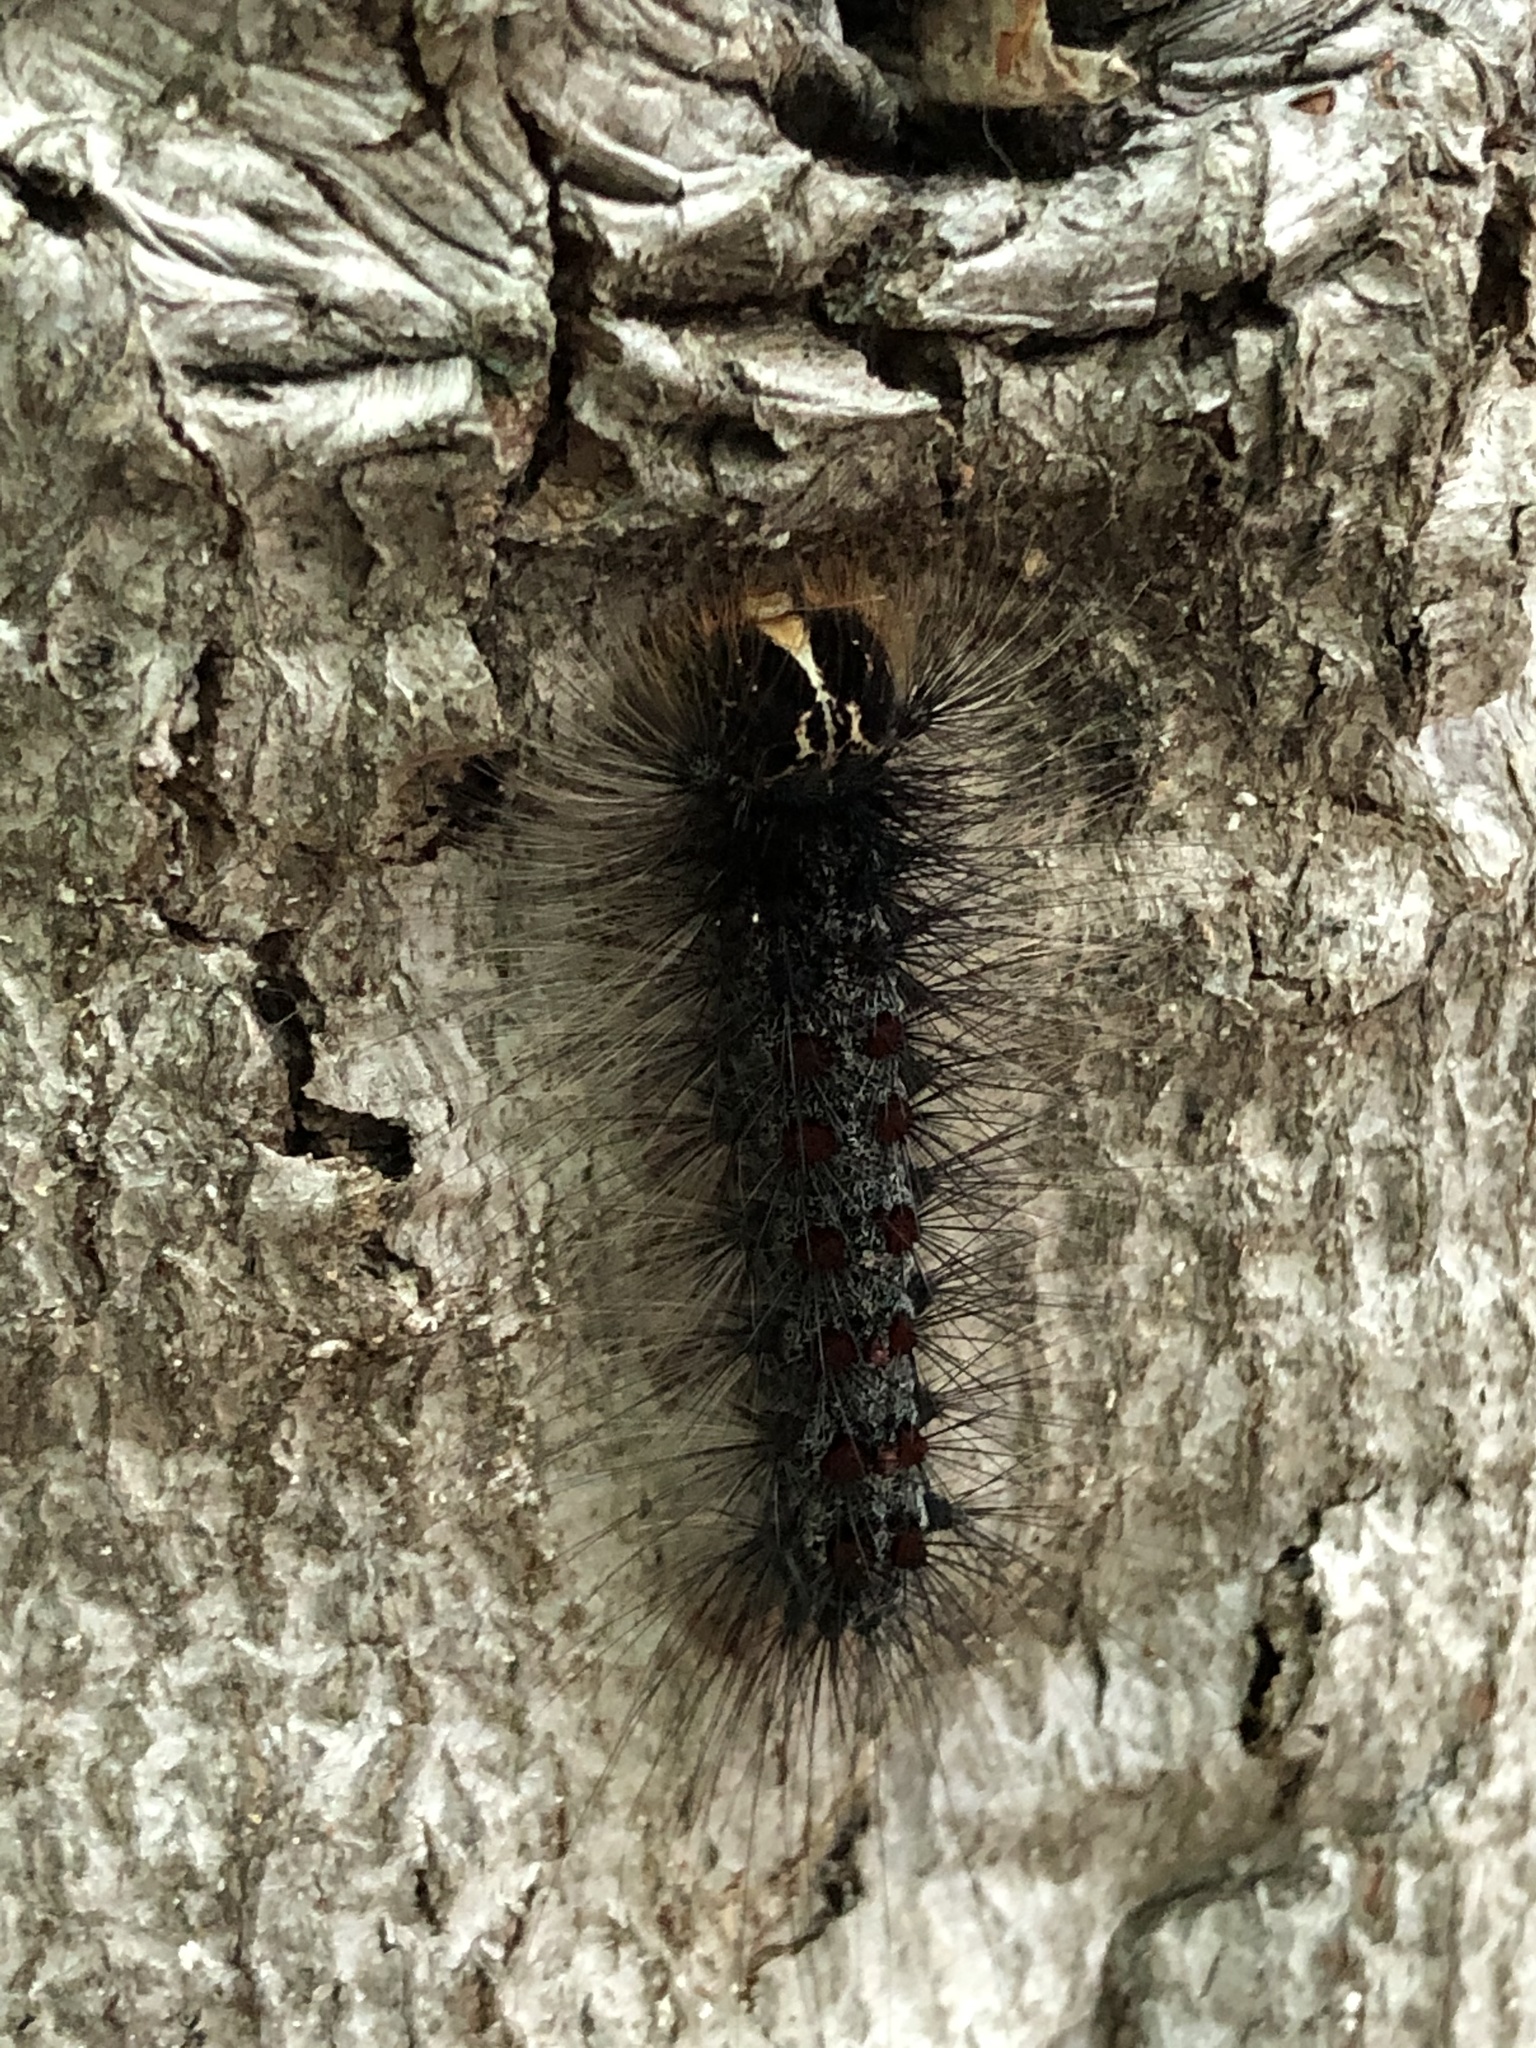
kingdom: Animalia
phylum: Arthropoda
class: Insecta
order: Lepidoptera
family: Erebidae
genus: Lymantria
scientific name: Lymantria dispar
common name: Gypsy moth
